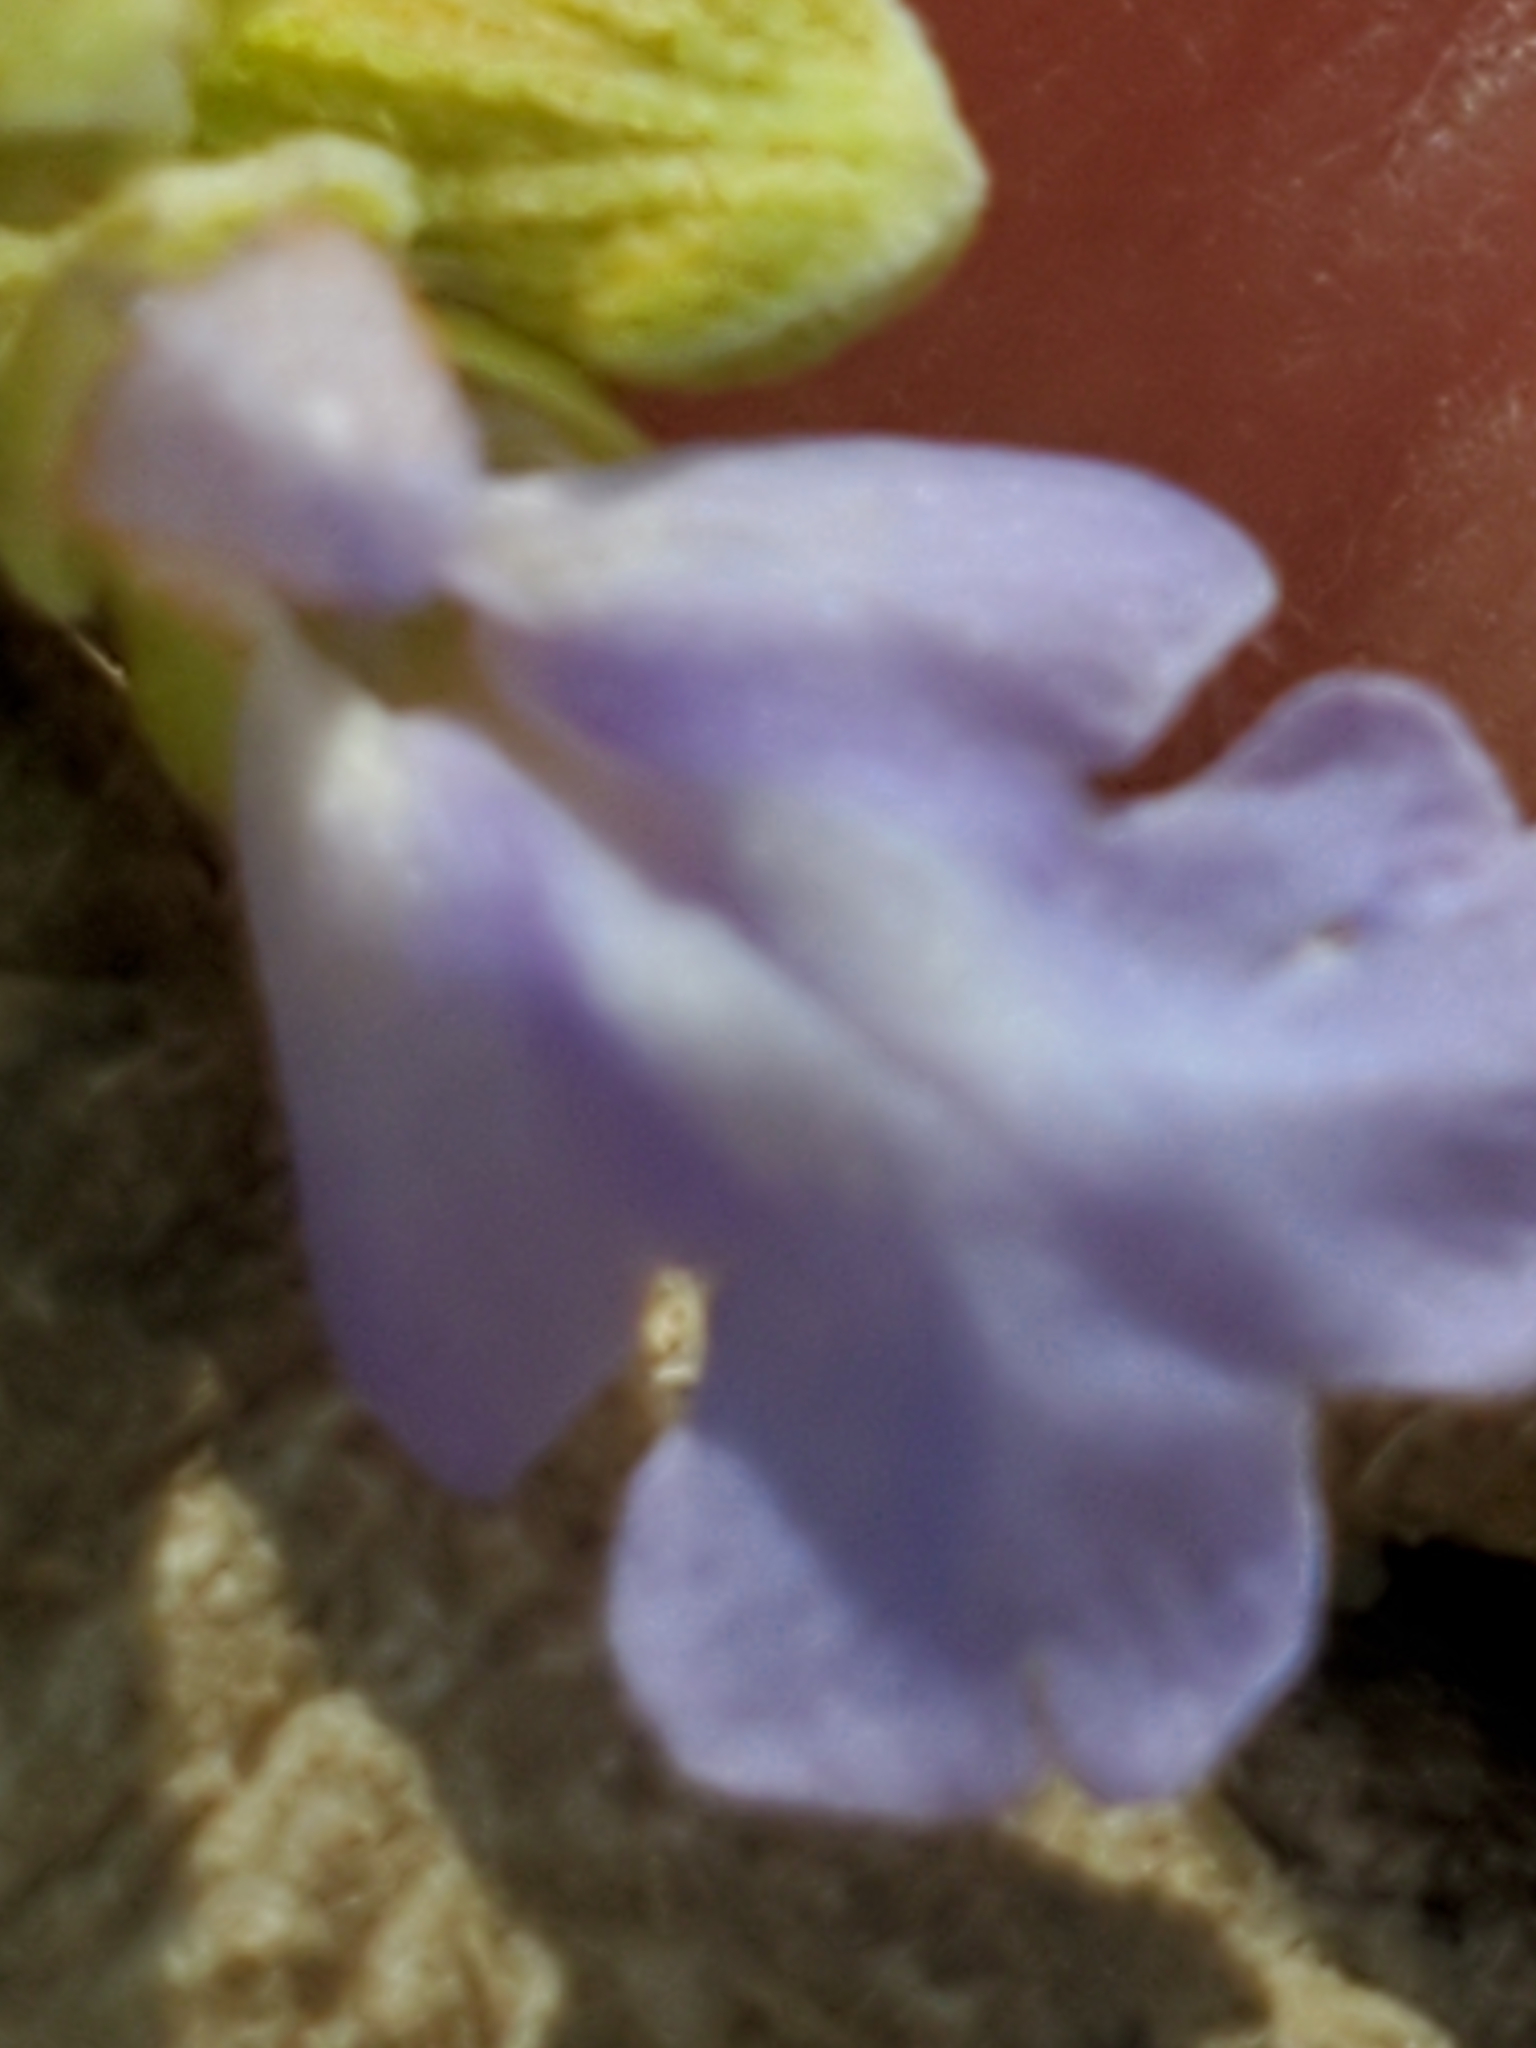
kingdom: Plantae
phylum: Tracheophyta
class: Magnoliopsida
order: Lamiales
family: Lamiaceae
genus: Salvia
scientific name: Salvia ballotiflora
